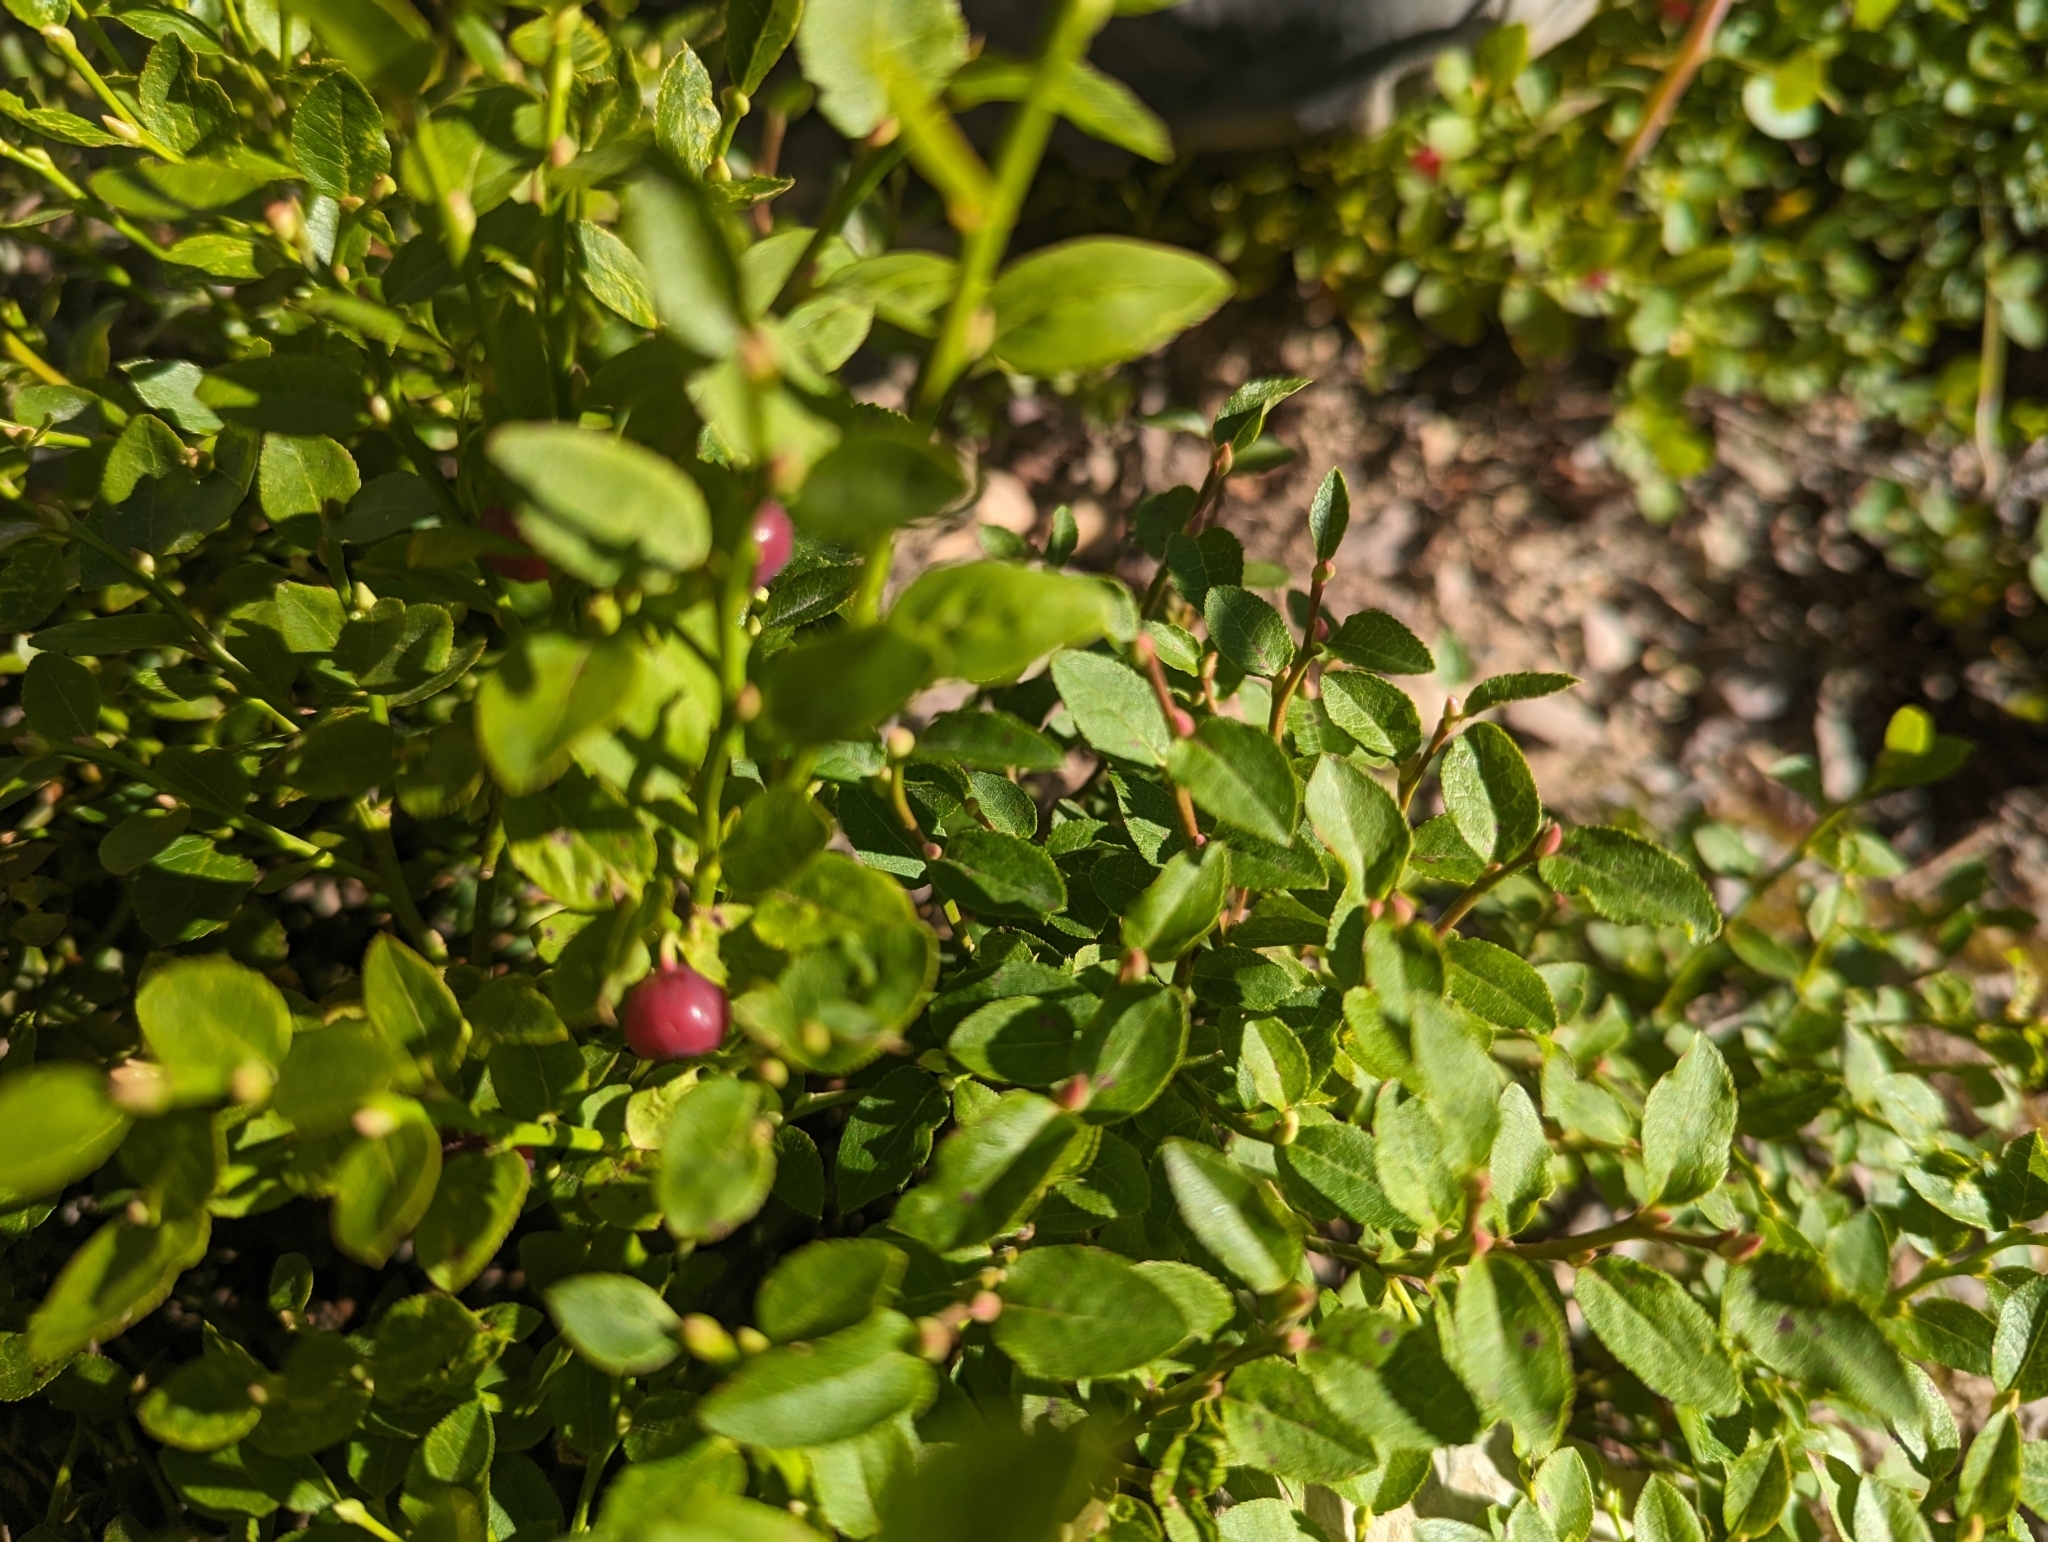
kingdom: Plantae
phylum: Tracheophyta
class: Magnoliopsida
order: Ericales
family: Ericaceae
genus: Vaccinium
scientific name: Vaccinium scoparium
